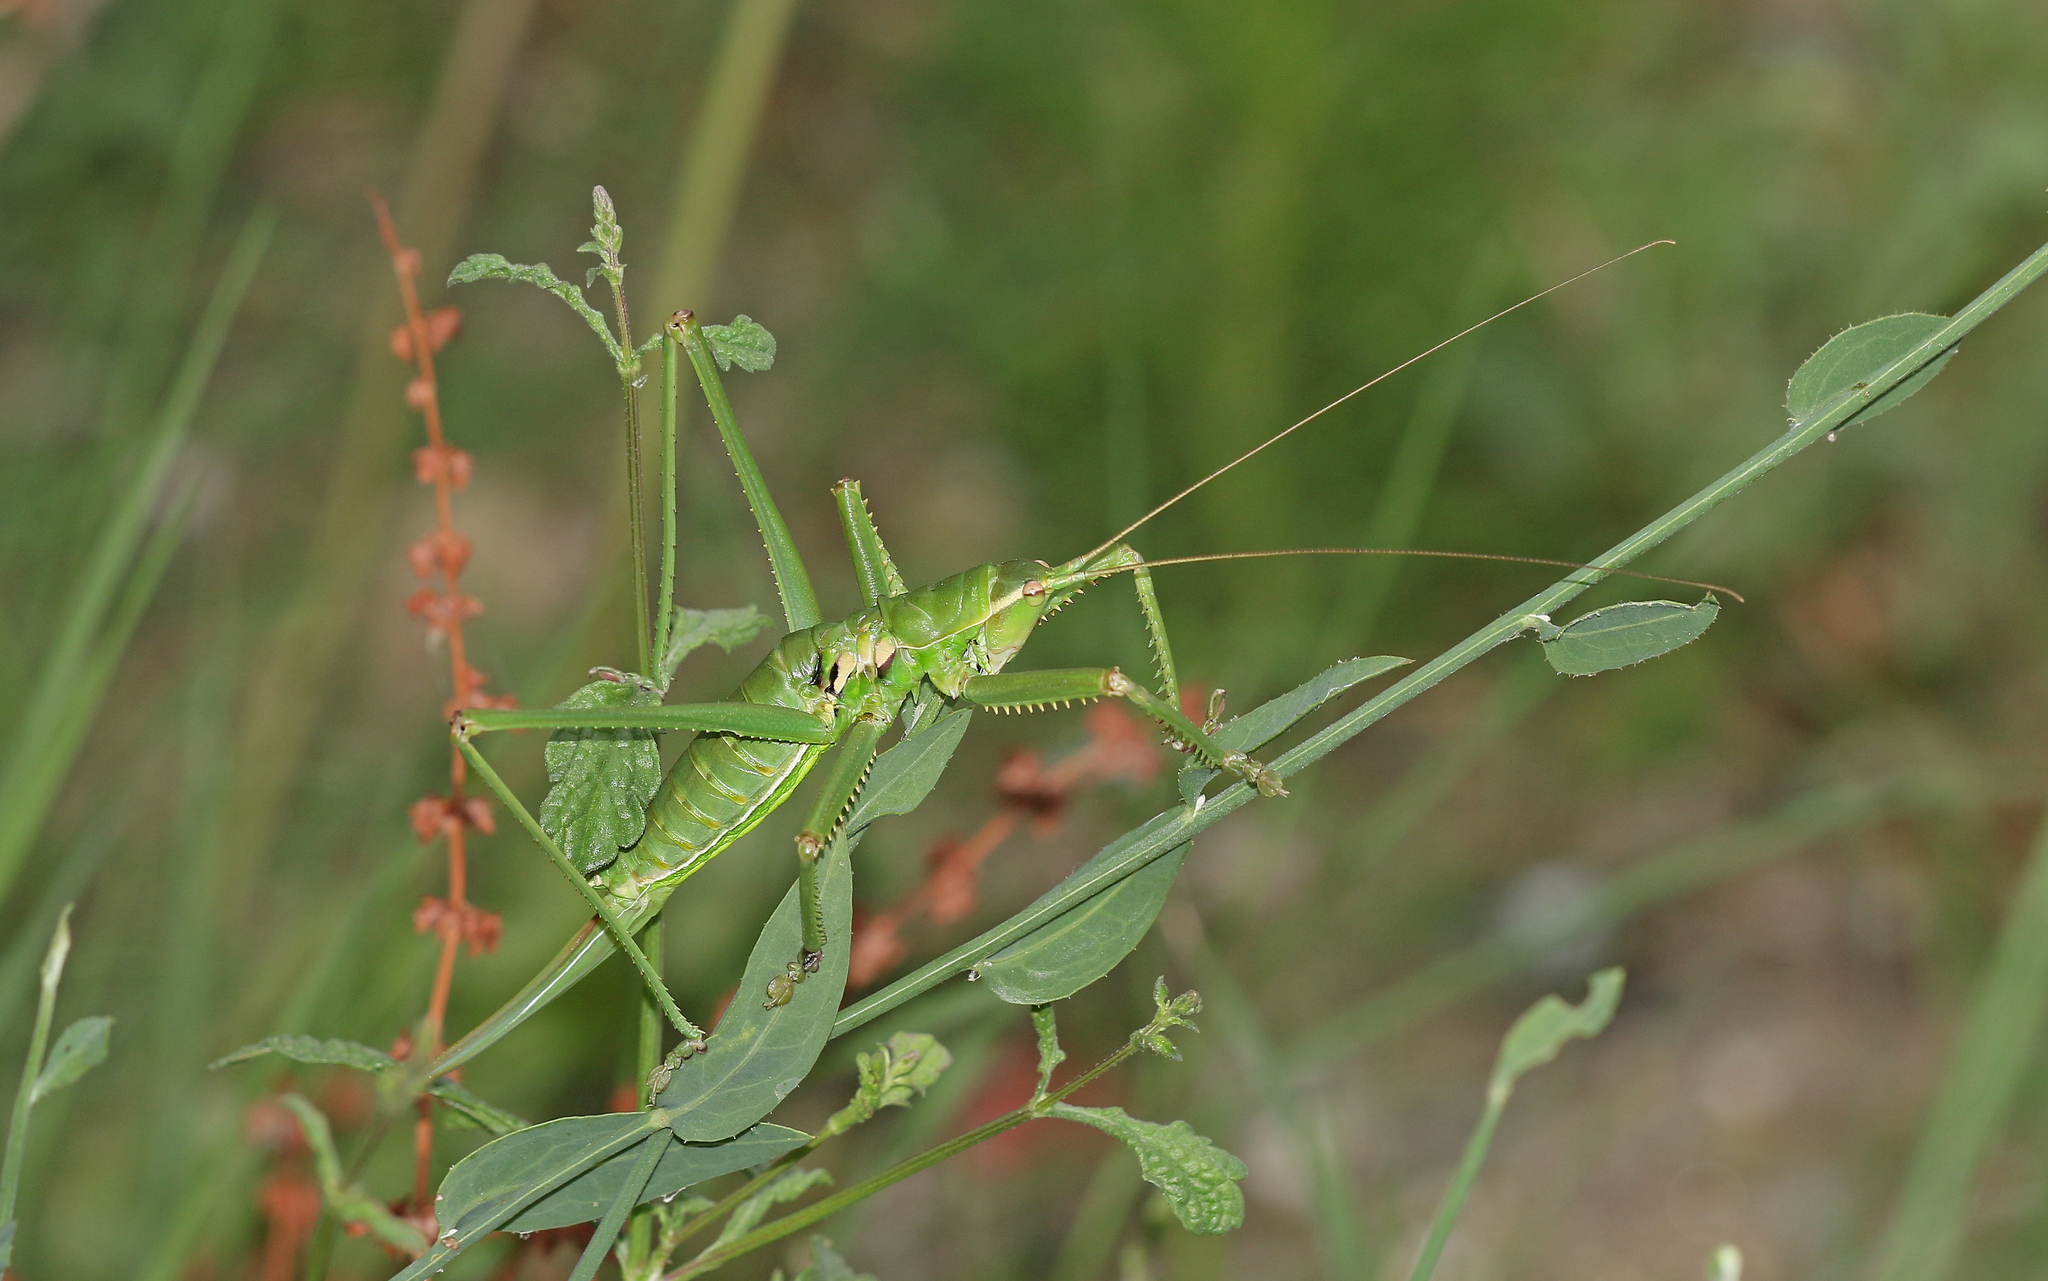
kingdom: Animalia
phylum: Arthropoda
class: Insecta
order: Orthoptera
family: Tettigoniidae
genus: Saga
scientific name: Saga natoliae
